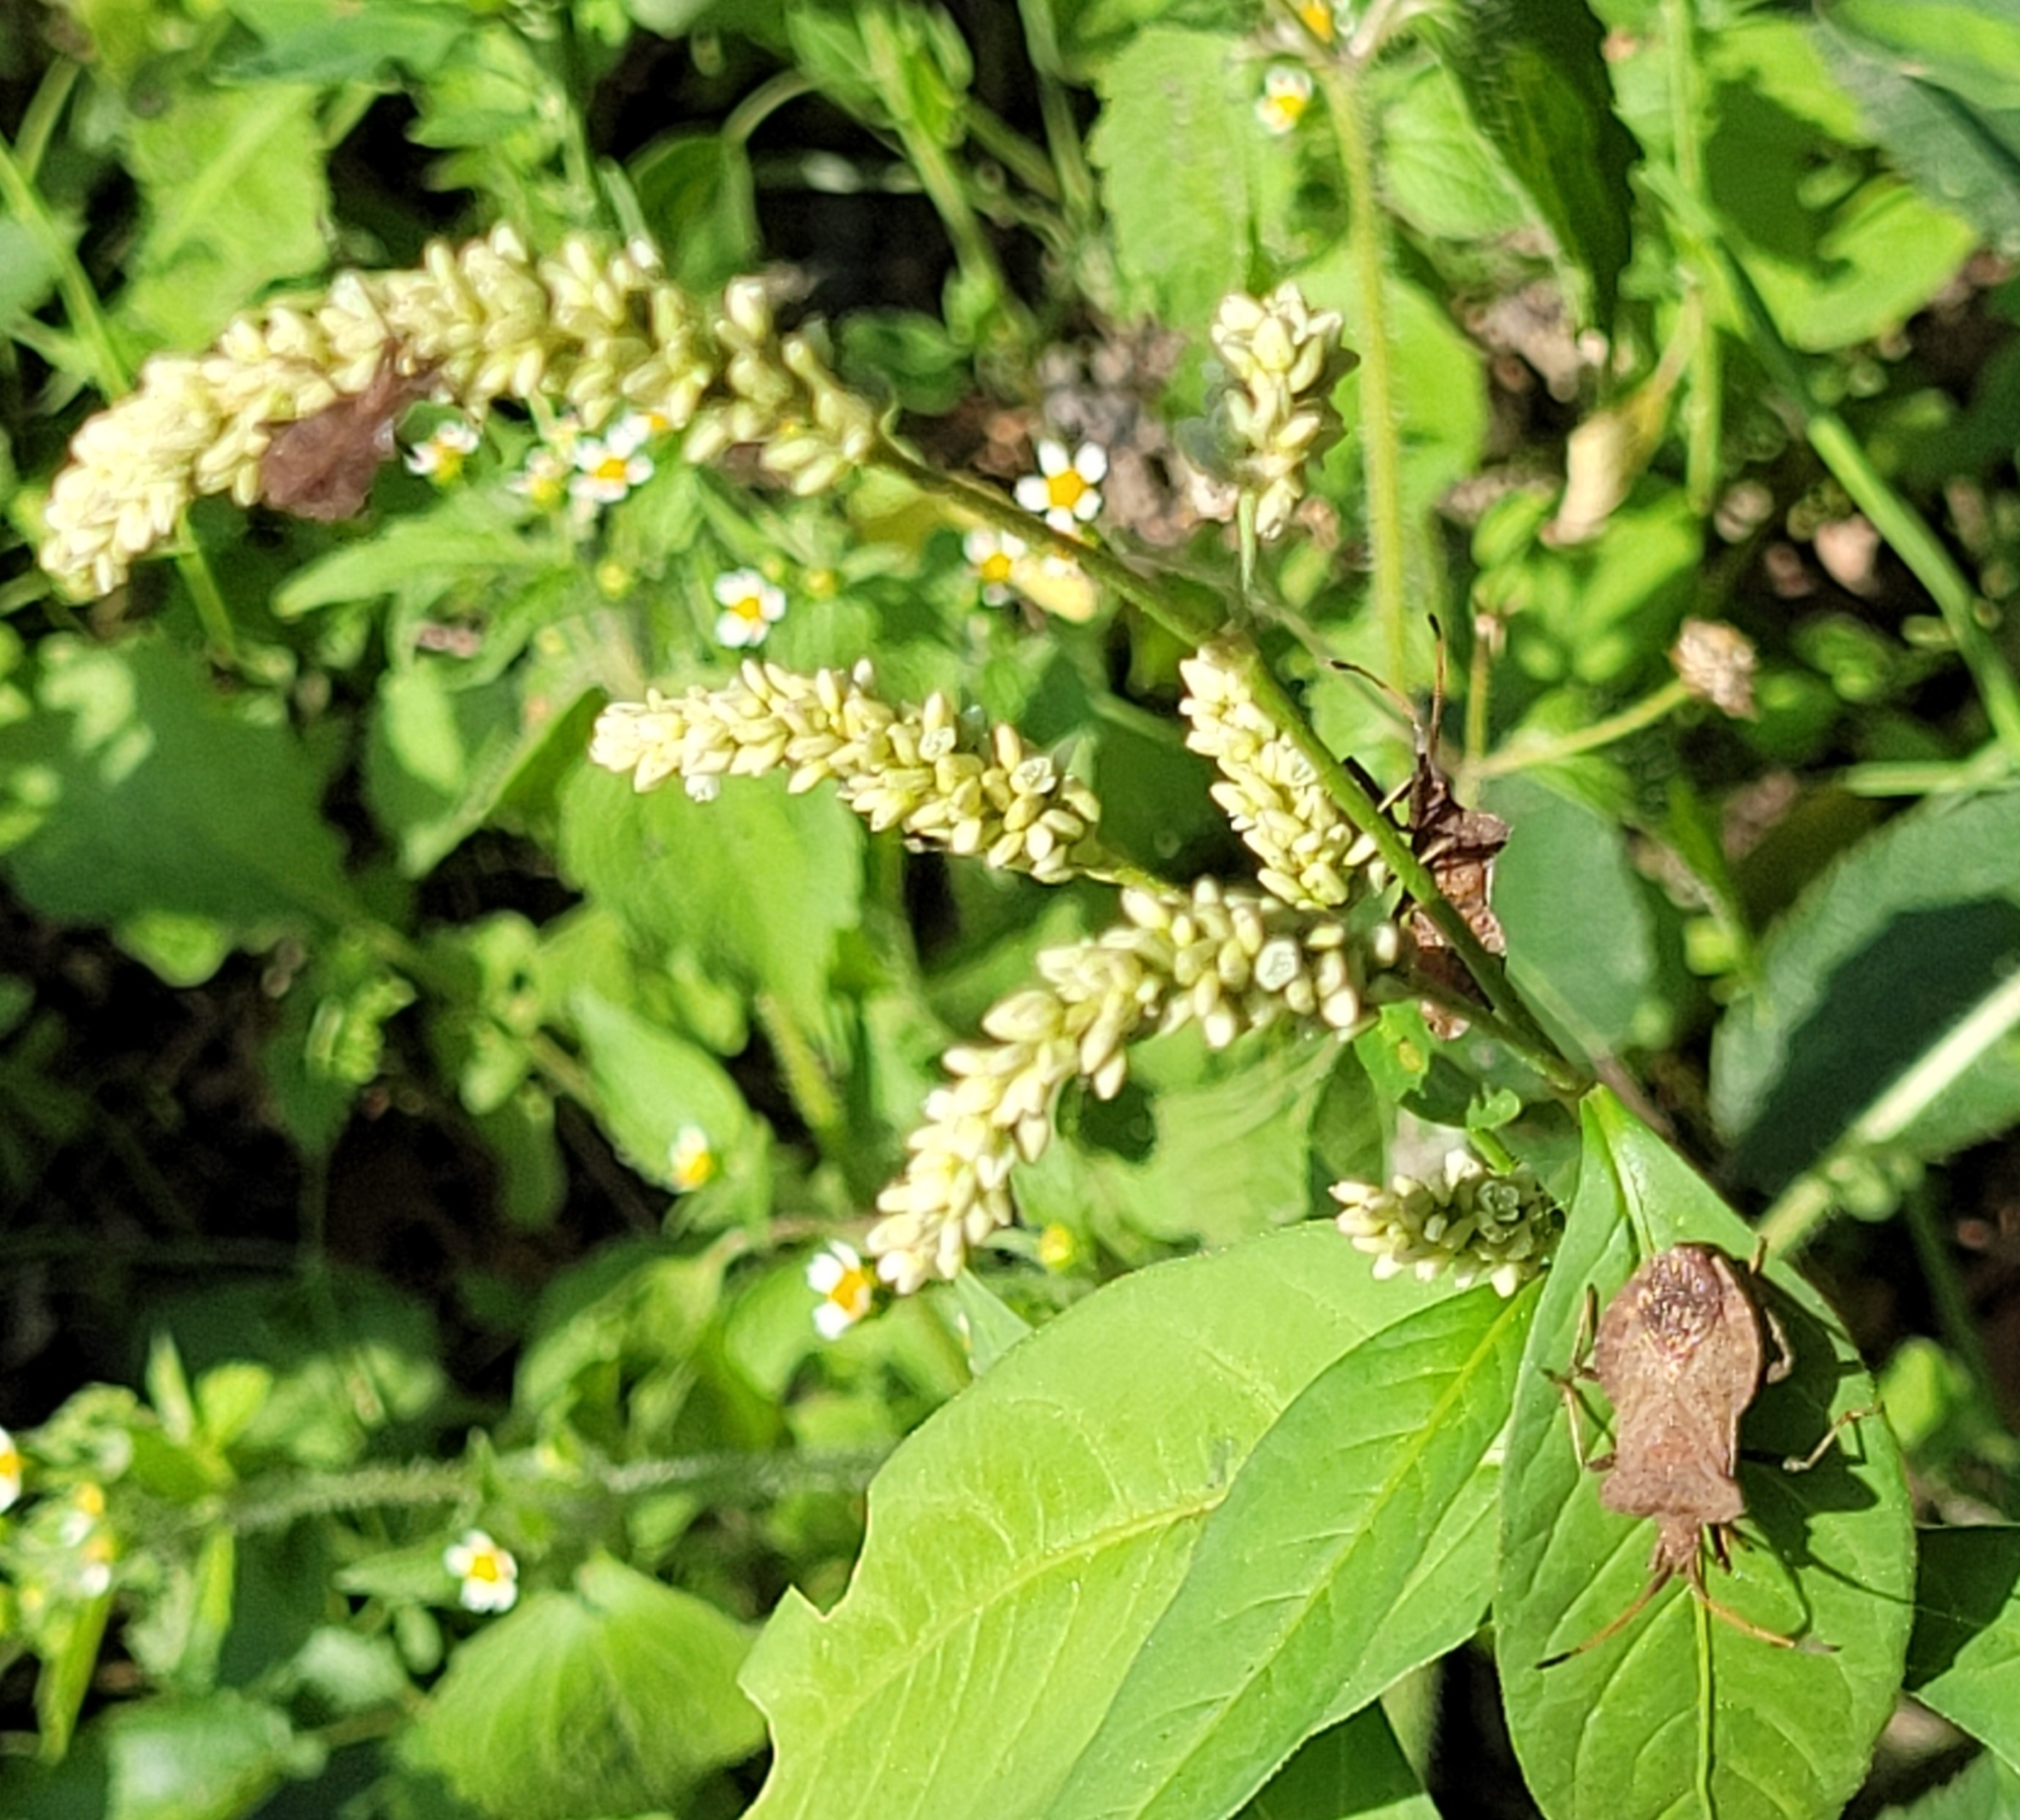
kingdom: Animalia
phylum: Arthropoda
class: Insecta
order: Hemiptera
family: Coreidae
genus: Coreus
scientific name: Coreus marginatus
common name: Dock bug
